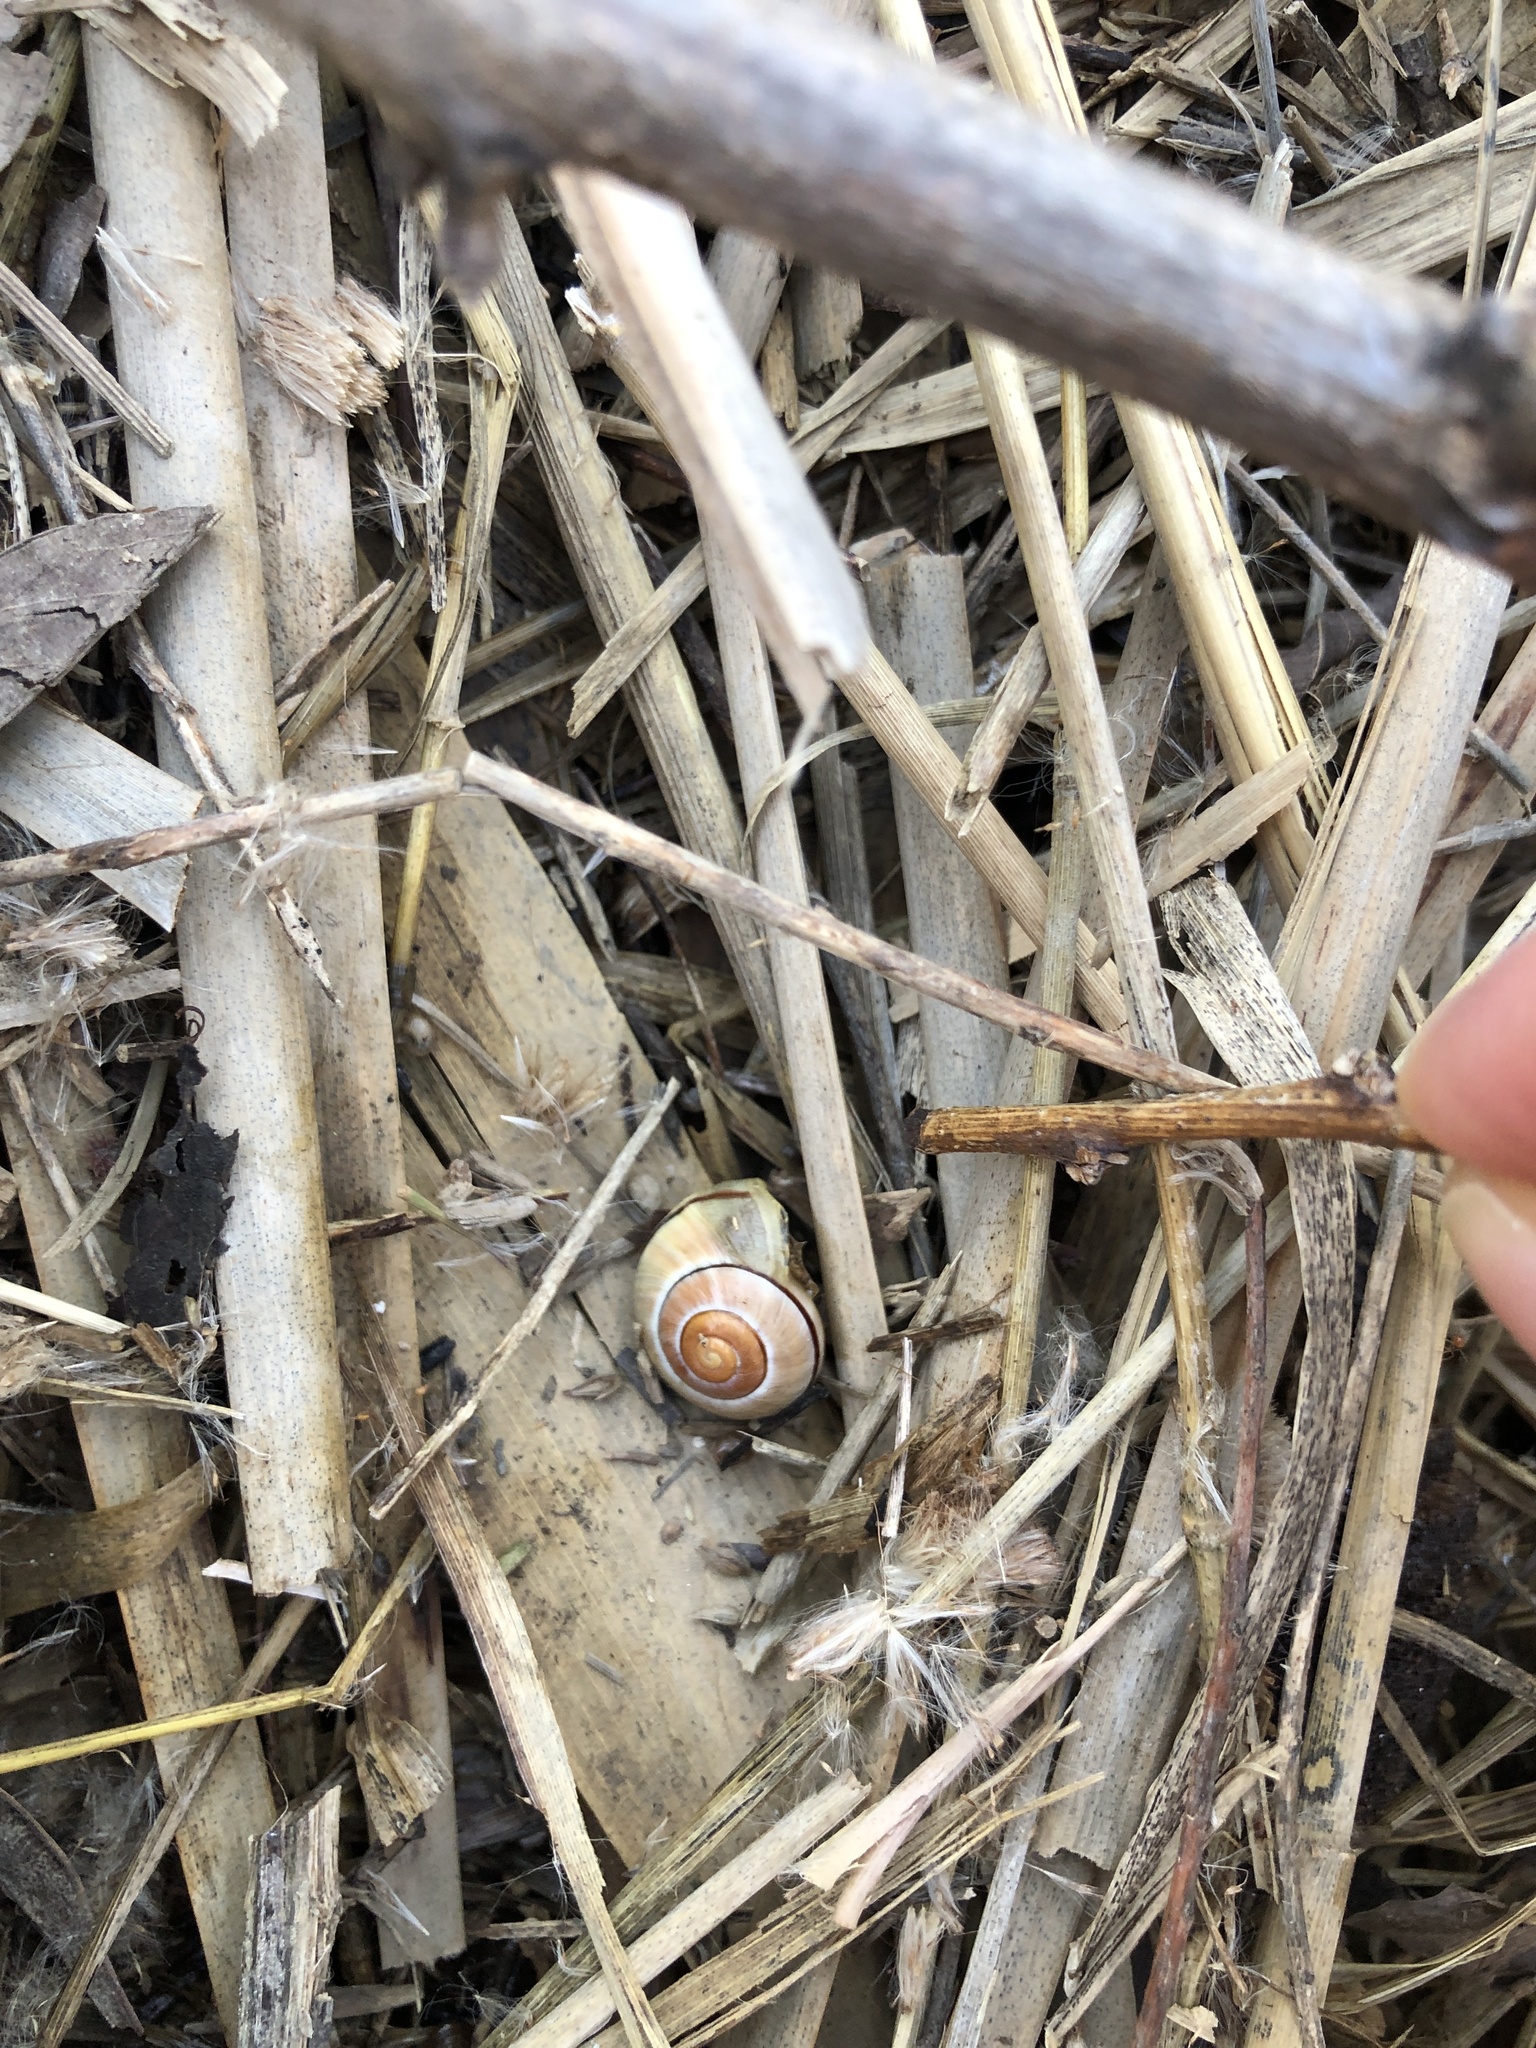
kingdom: Animalia
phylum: Mollusca
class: Gastropoda
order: Stylommatophora
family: Helicidae
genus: Cepaea
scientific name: Cepaea nemoralis
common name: Grovesnail
